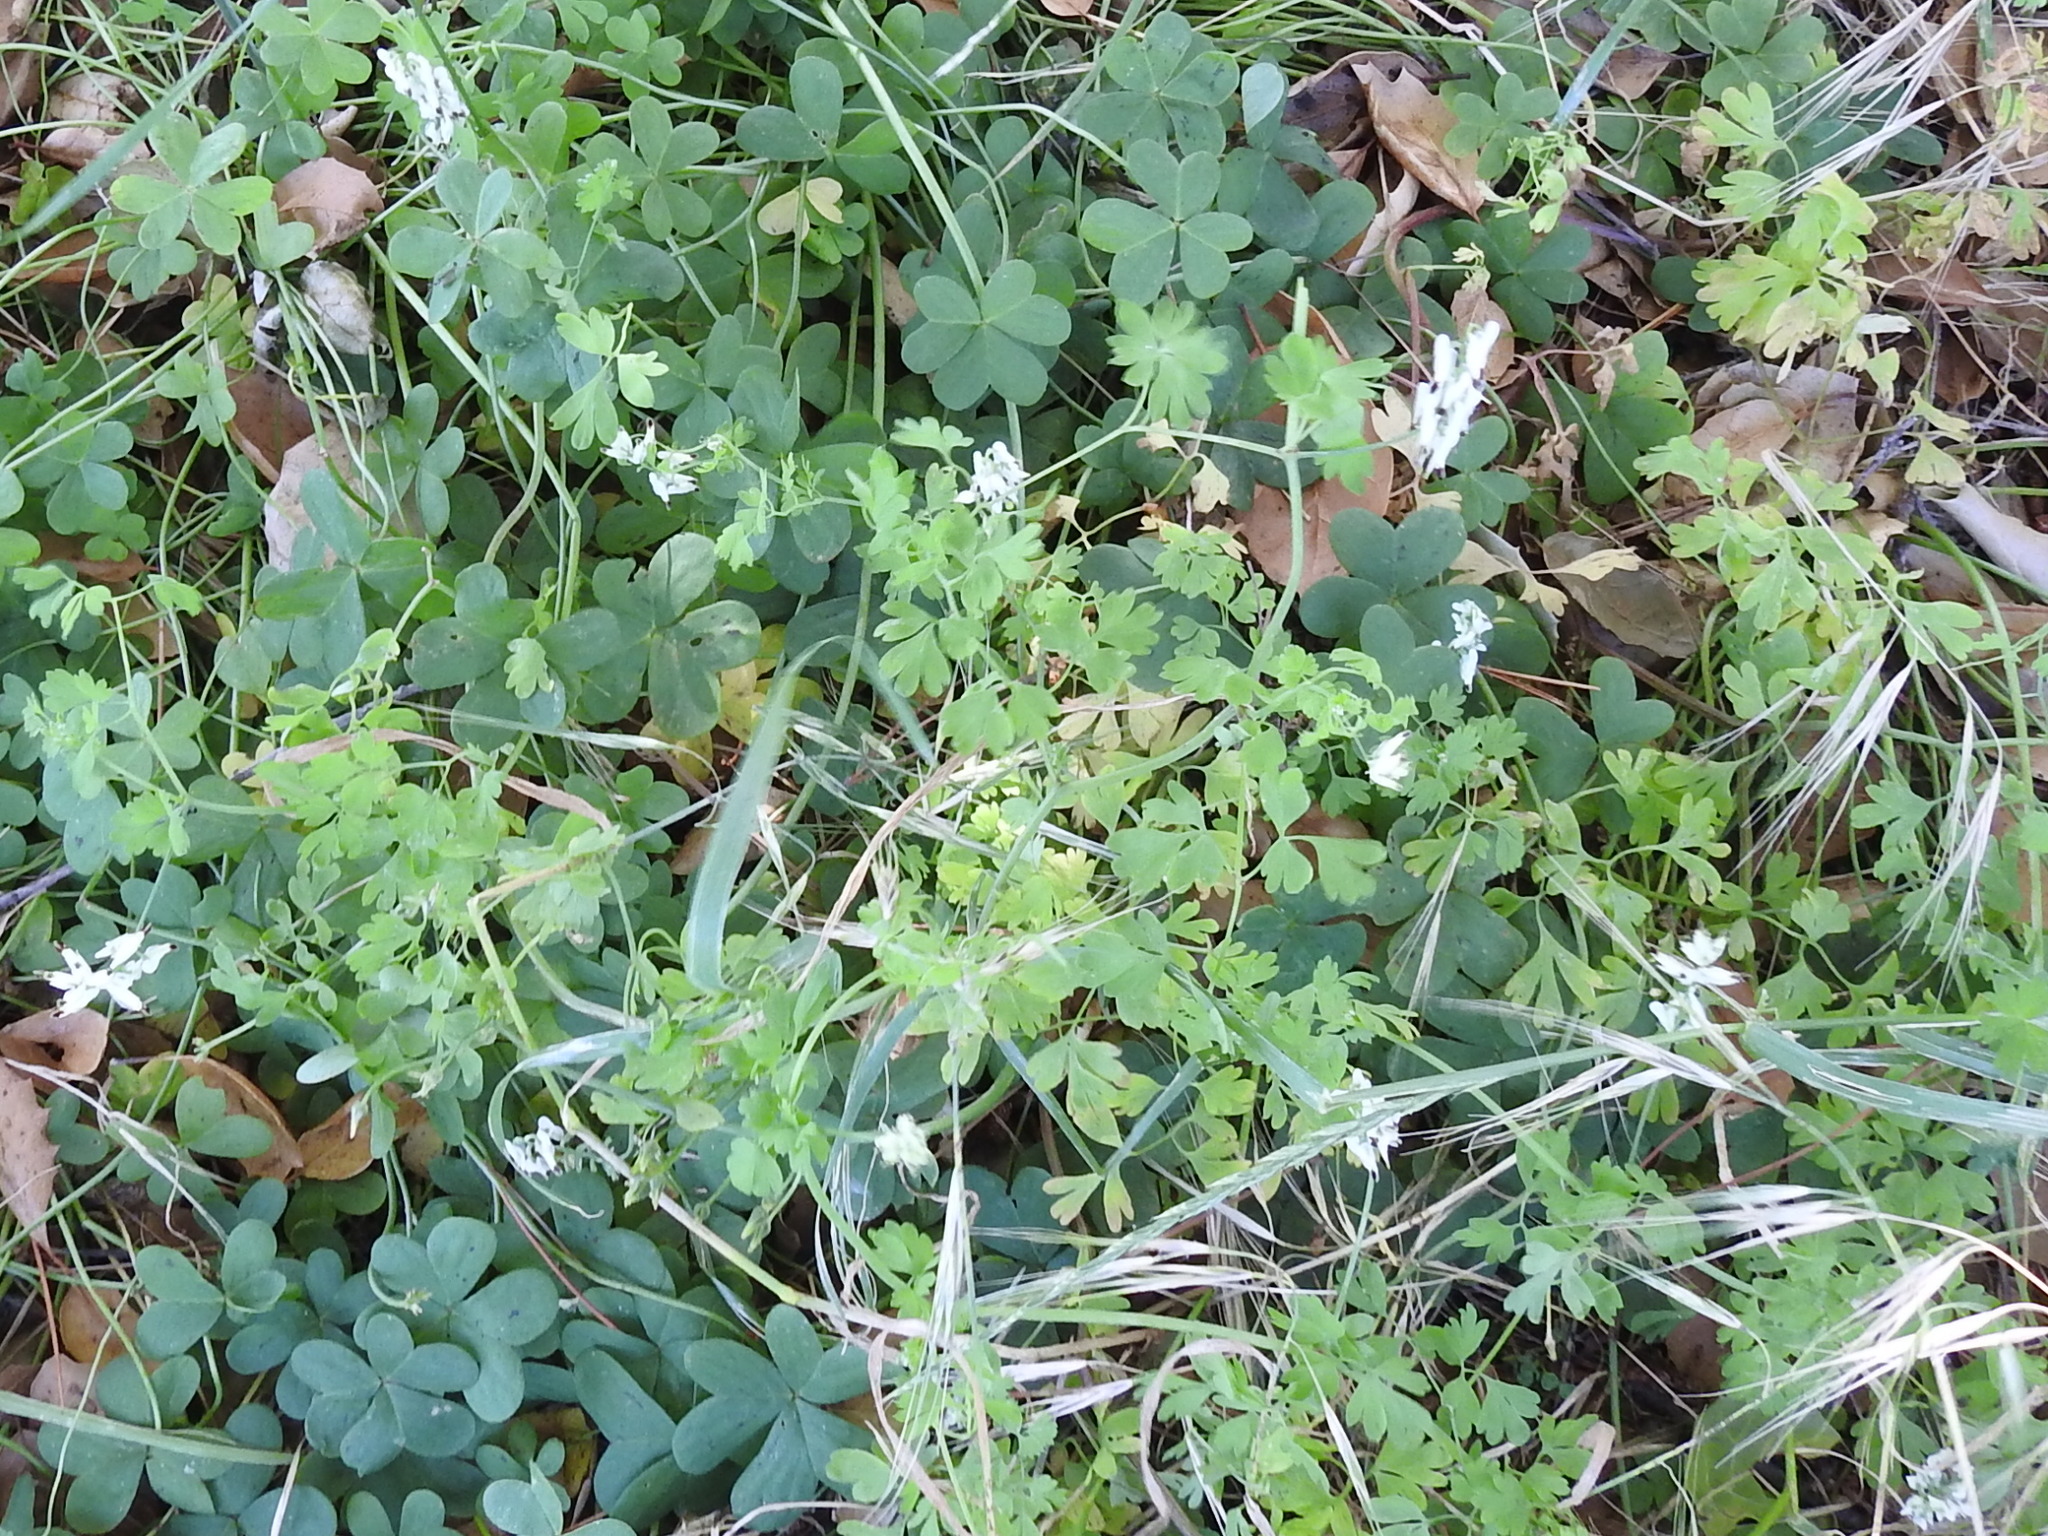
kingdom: Plantae
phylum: Tracheophyta
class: Magnoliopsida
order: Ranunculales
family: Papaveraceae
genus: Fumaria
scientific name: Fumaria capreolata
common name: White ramping-fumitory
